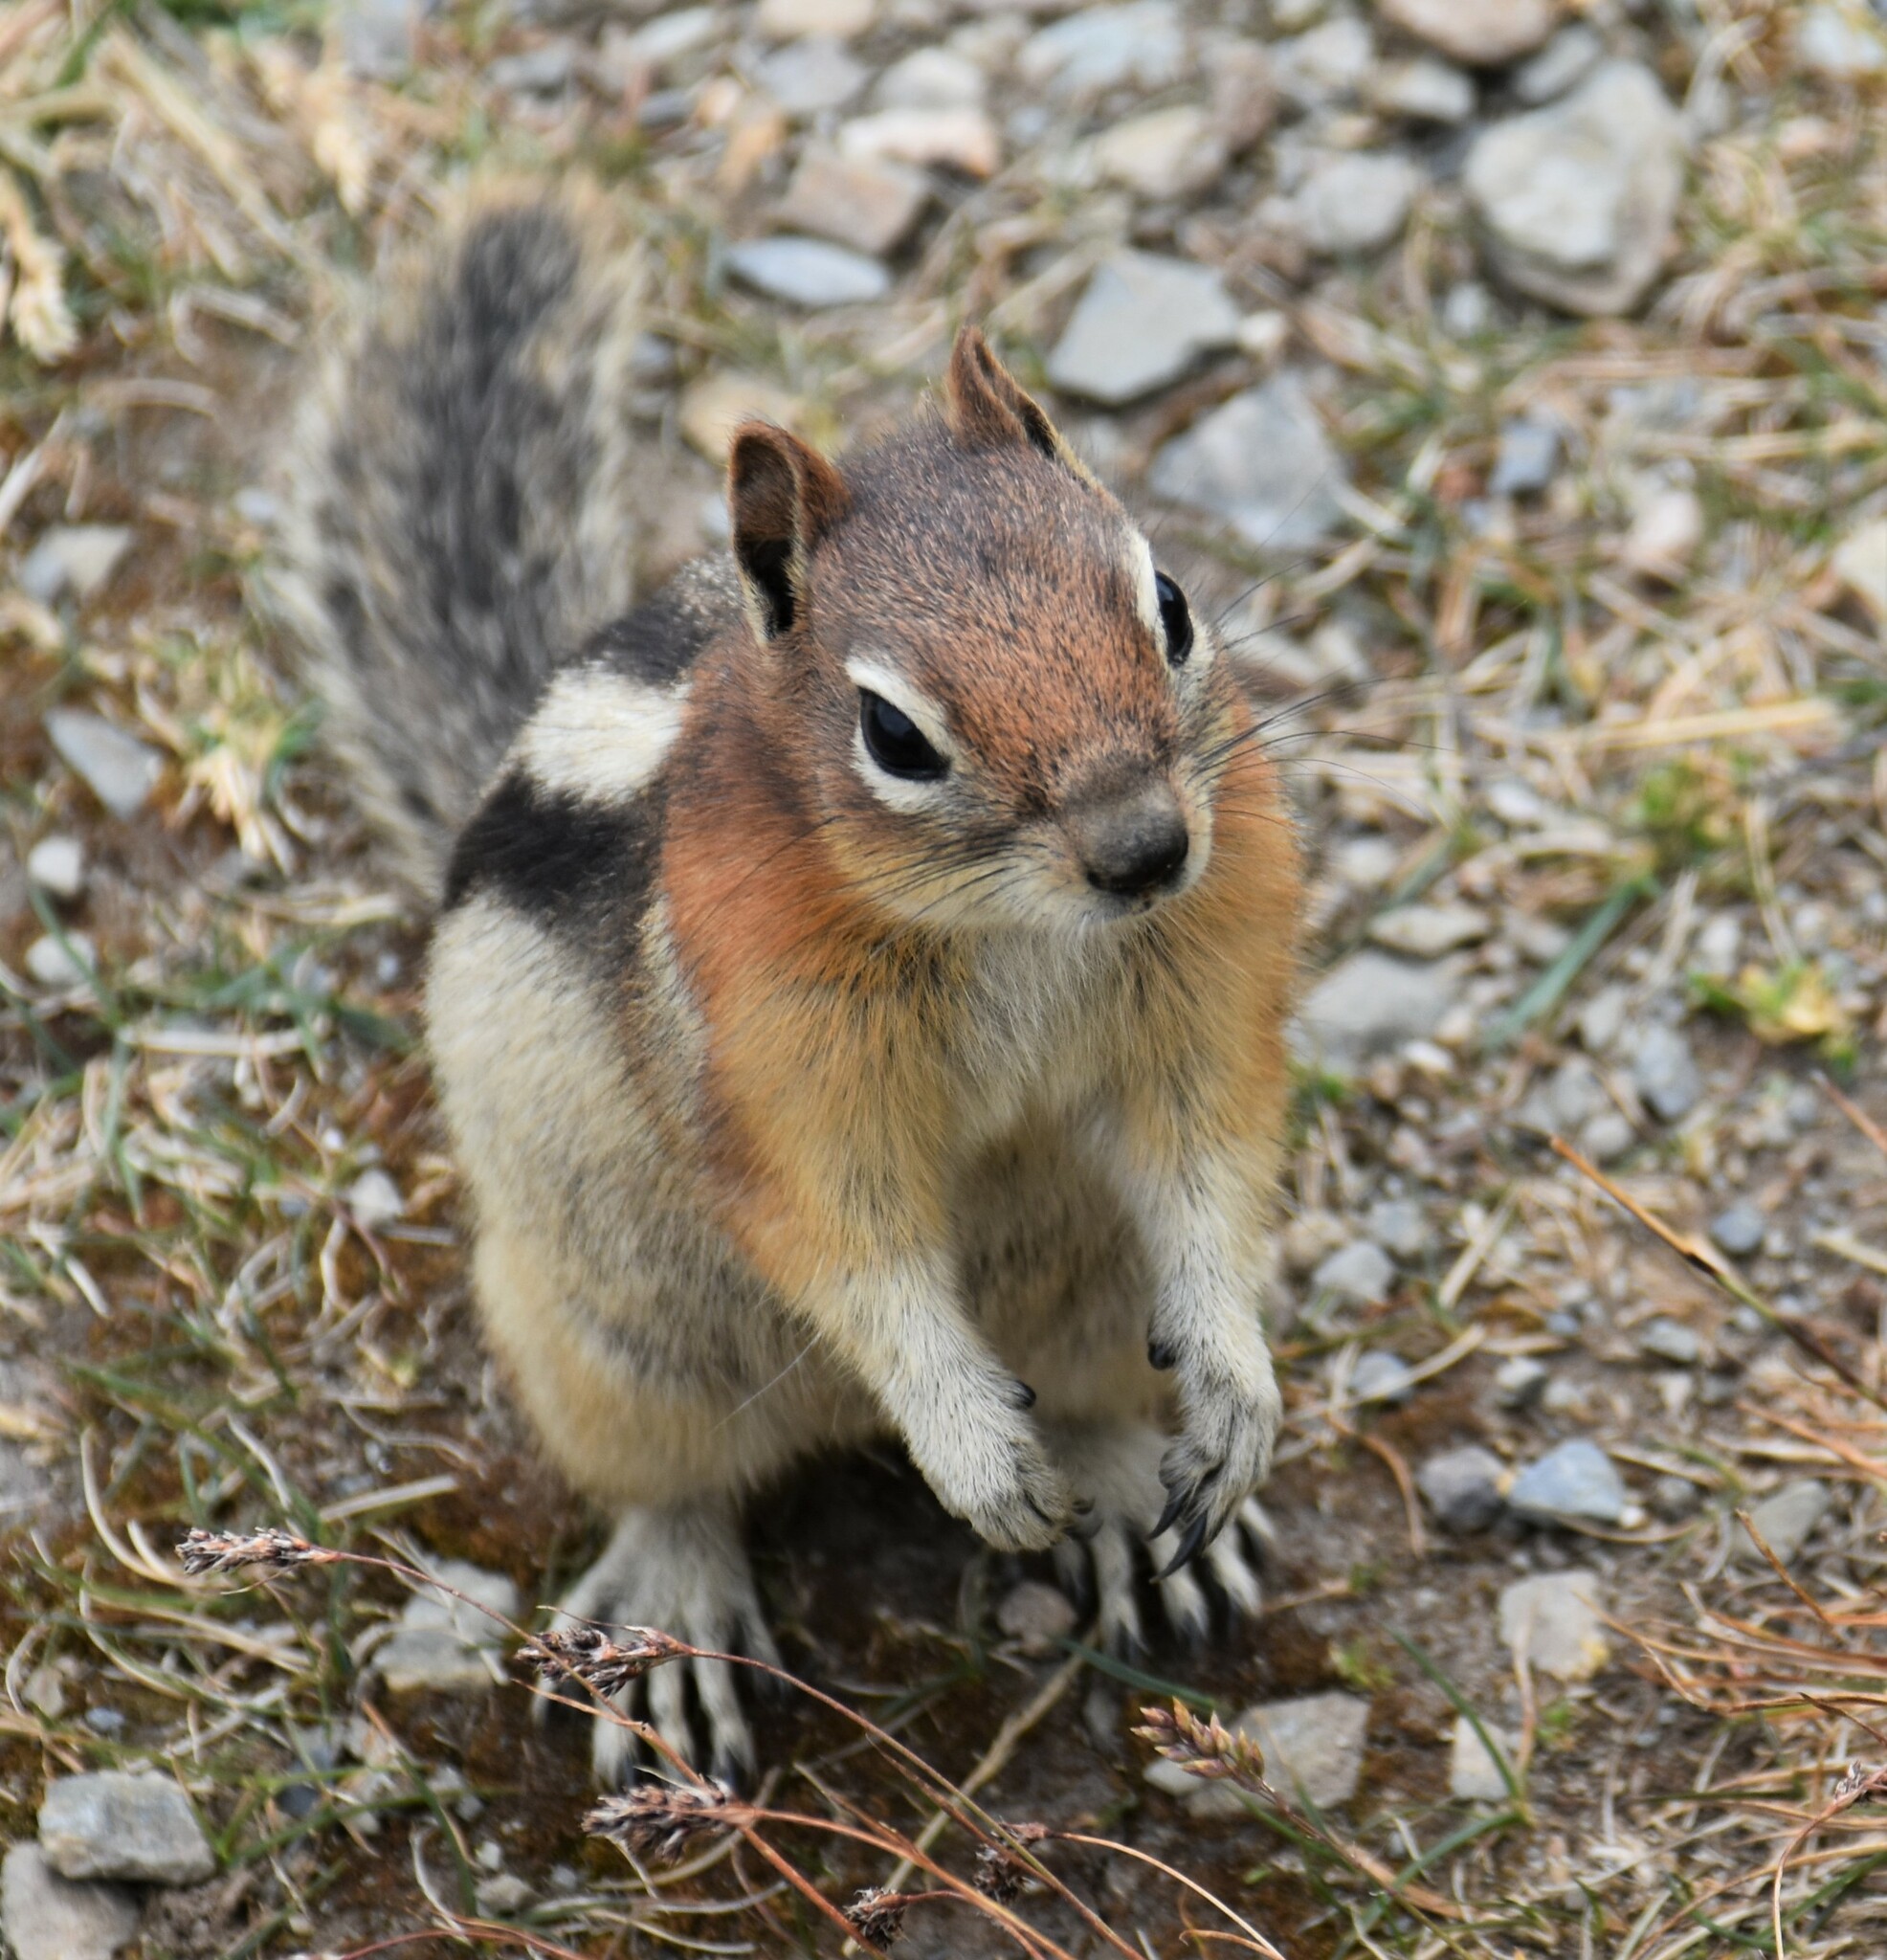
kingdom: Animalia
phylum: Chordata
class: Mammalia
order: Rodentia
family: Sciuridae
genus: Callospermophilus
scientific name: Callospermophilus lateralis
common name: Golden-mantled ground squirrel
